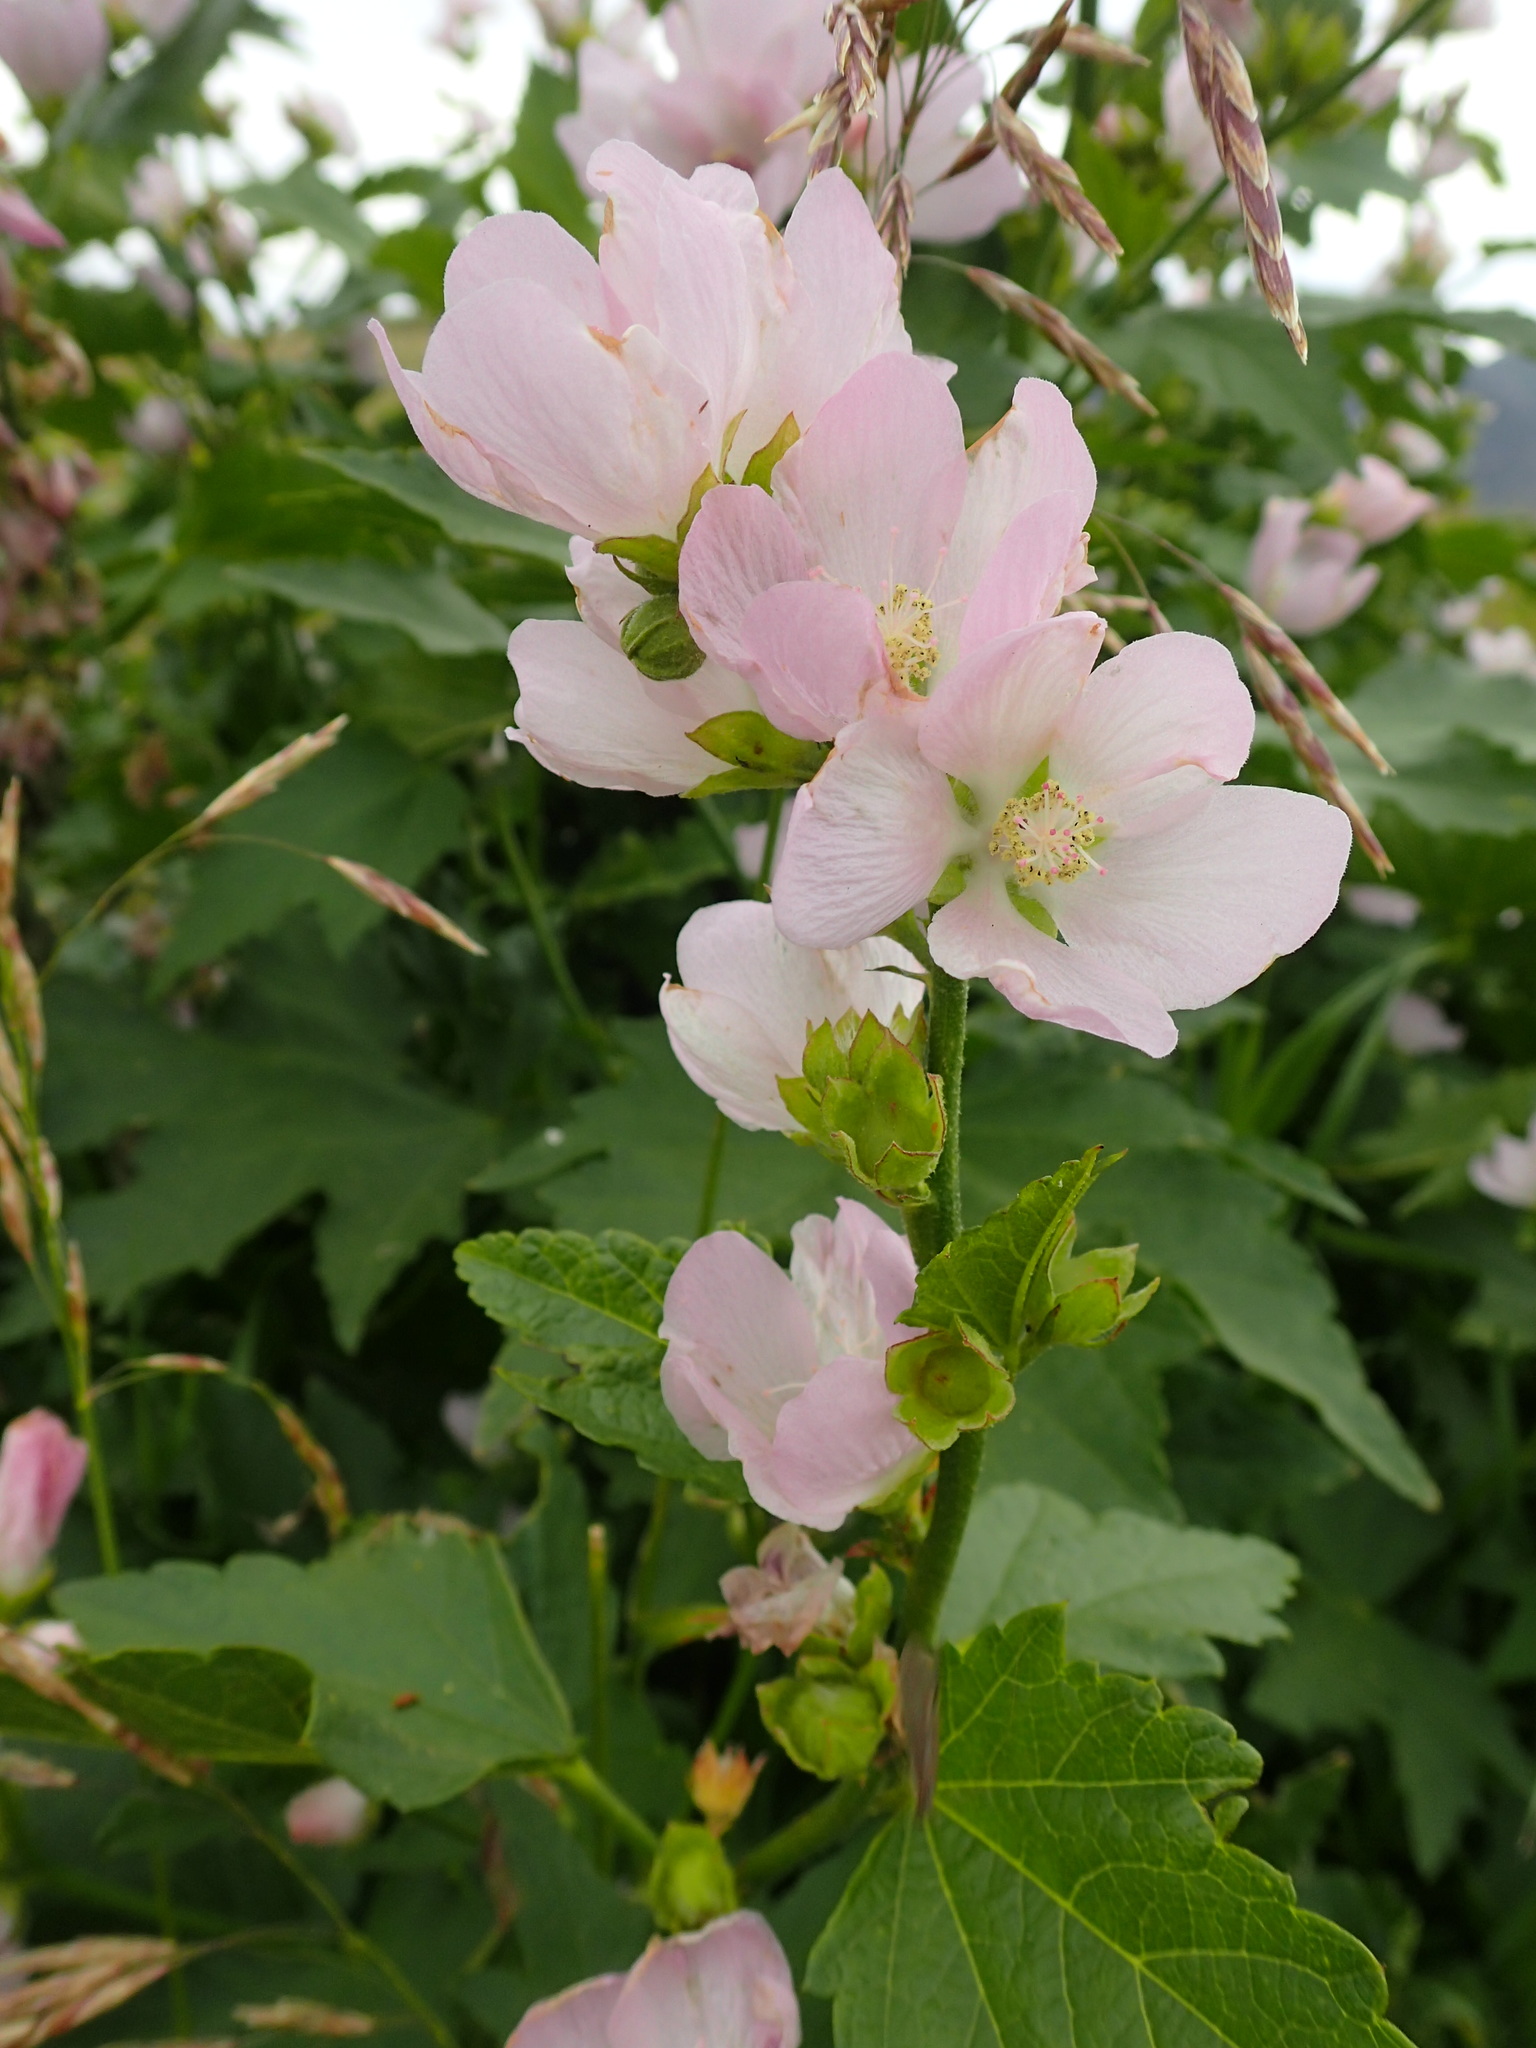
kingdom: Plantae
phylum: Tracheophyta
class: Magnoliopsida
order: Malvales
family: Malvaceae
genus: Iliamna
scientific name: Iliamna rivularis
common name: Wild hollyhock
